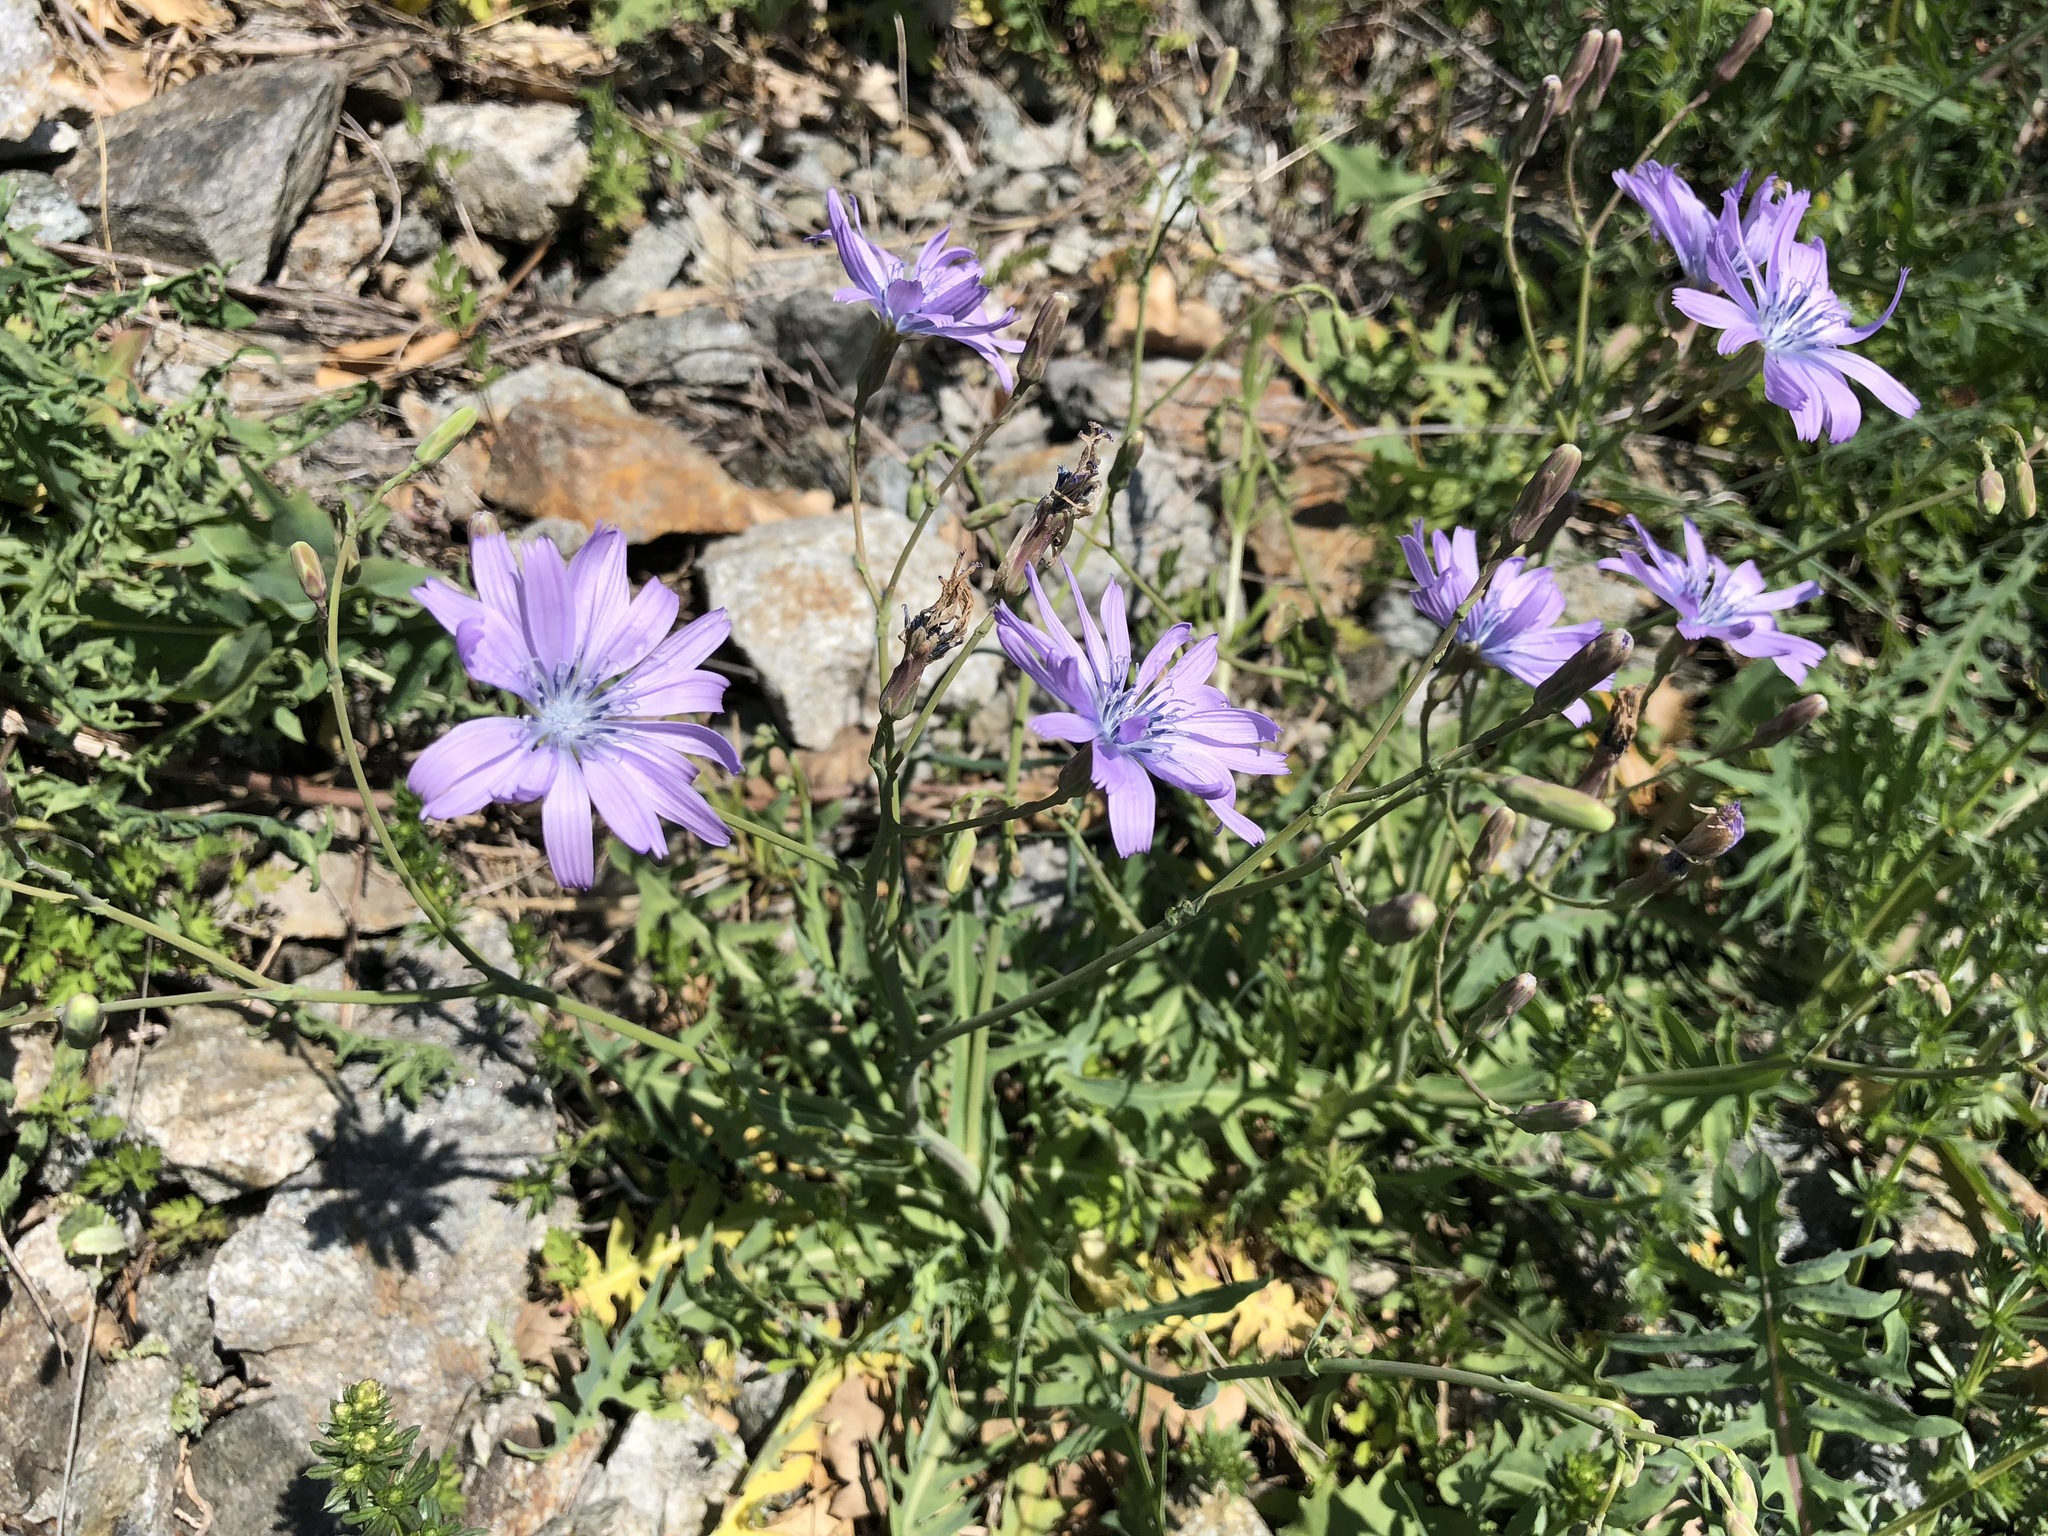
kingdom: Plantae
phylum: Tracheophyta
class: Magnoliopsida
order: Asterales
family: Asteraceae
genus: Lactuca
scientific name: Lactuca perennis
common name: Mountain lettuce
